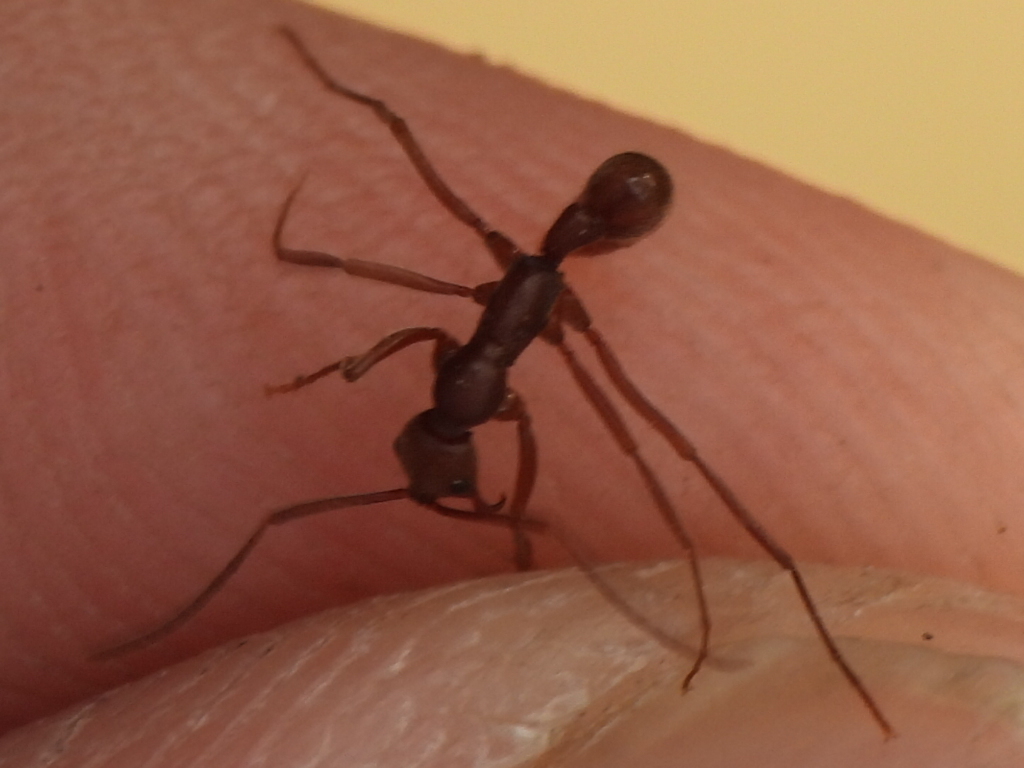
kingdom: Animalia
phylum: Arthropoda
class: Insecta
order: Hymenoptera
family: Formicidae
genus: Leptogenys
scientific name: Leptogenys elongata
